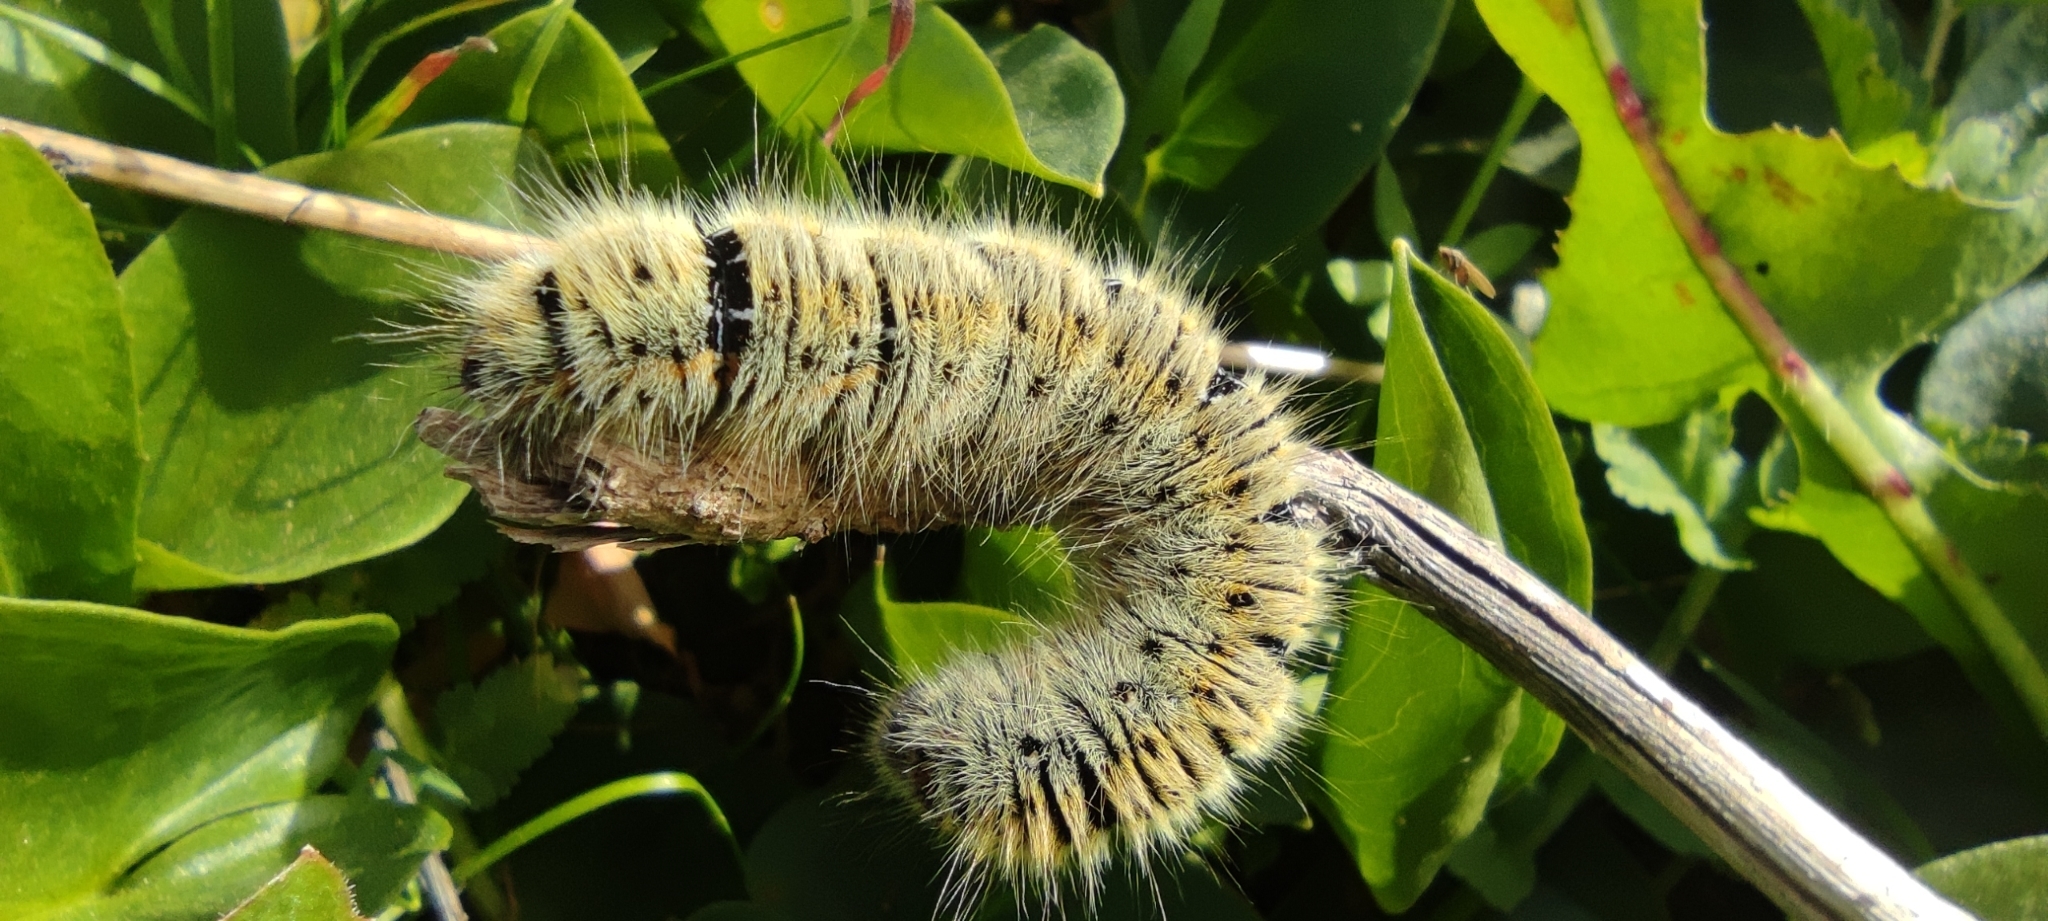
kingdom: Animalia
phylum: Arthropoda
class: Insecta
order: Lepidoptera
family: Lasiocampidae
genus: Lasiocampa
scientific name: Lasiocampa trifolii
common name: Grass eggar
